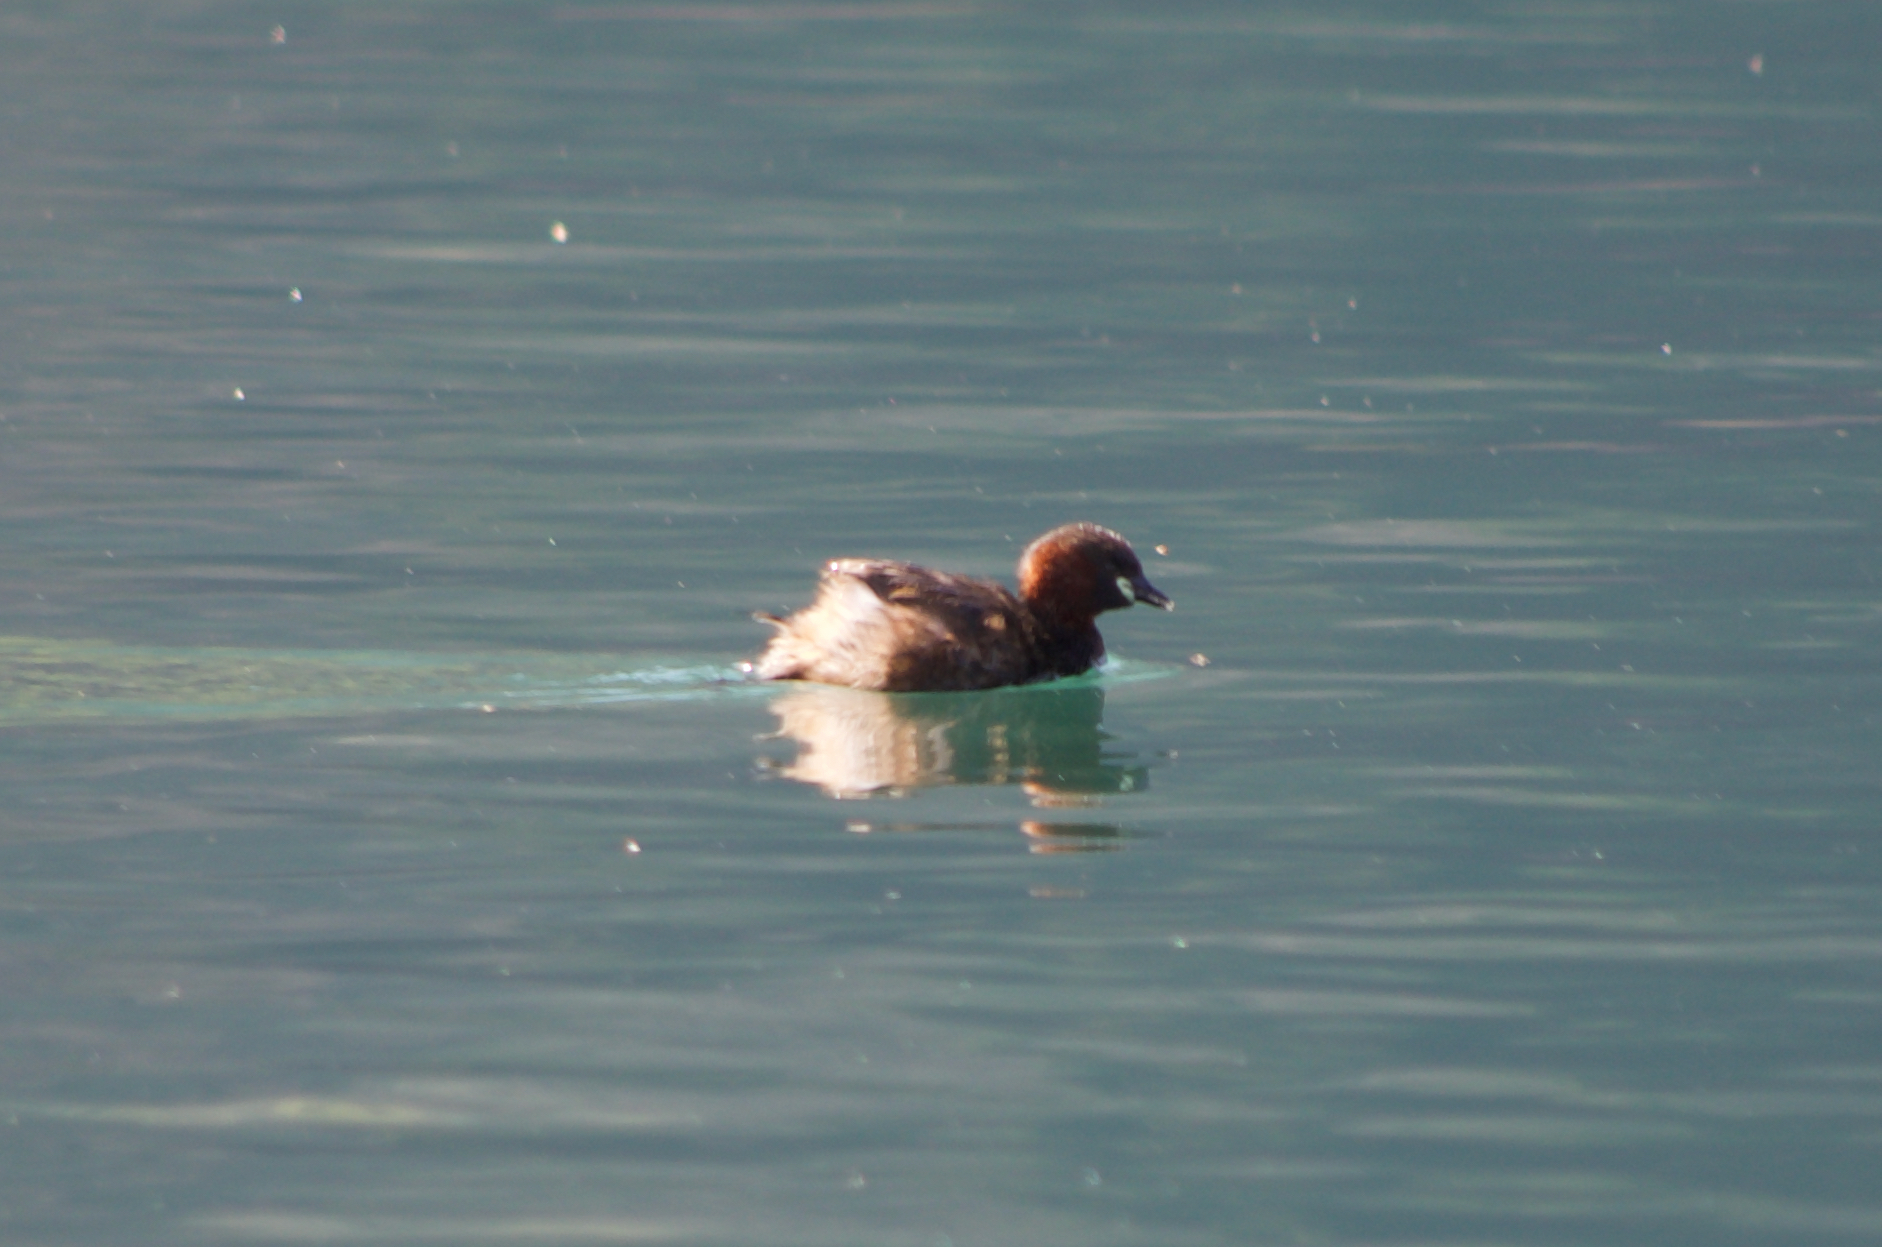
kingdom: Animalia
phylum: Chordata
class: Aves
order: Podicipediformes
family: Podicipedidae
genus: Tachybaptus
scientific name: Tachybaptus ruficollis
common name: Little grebe
